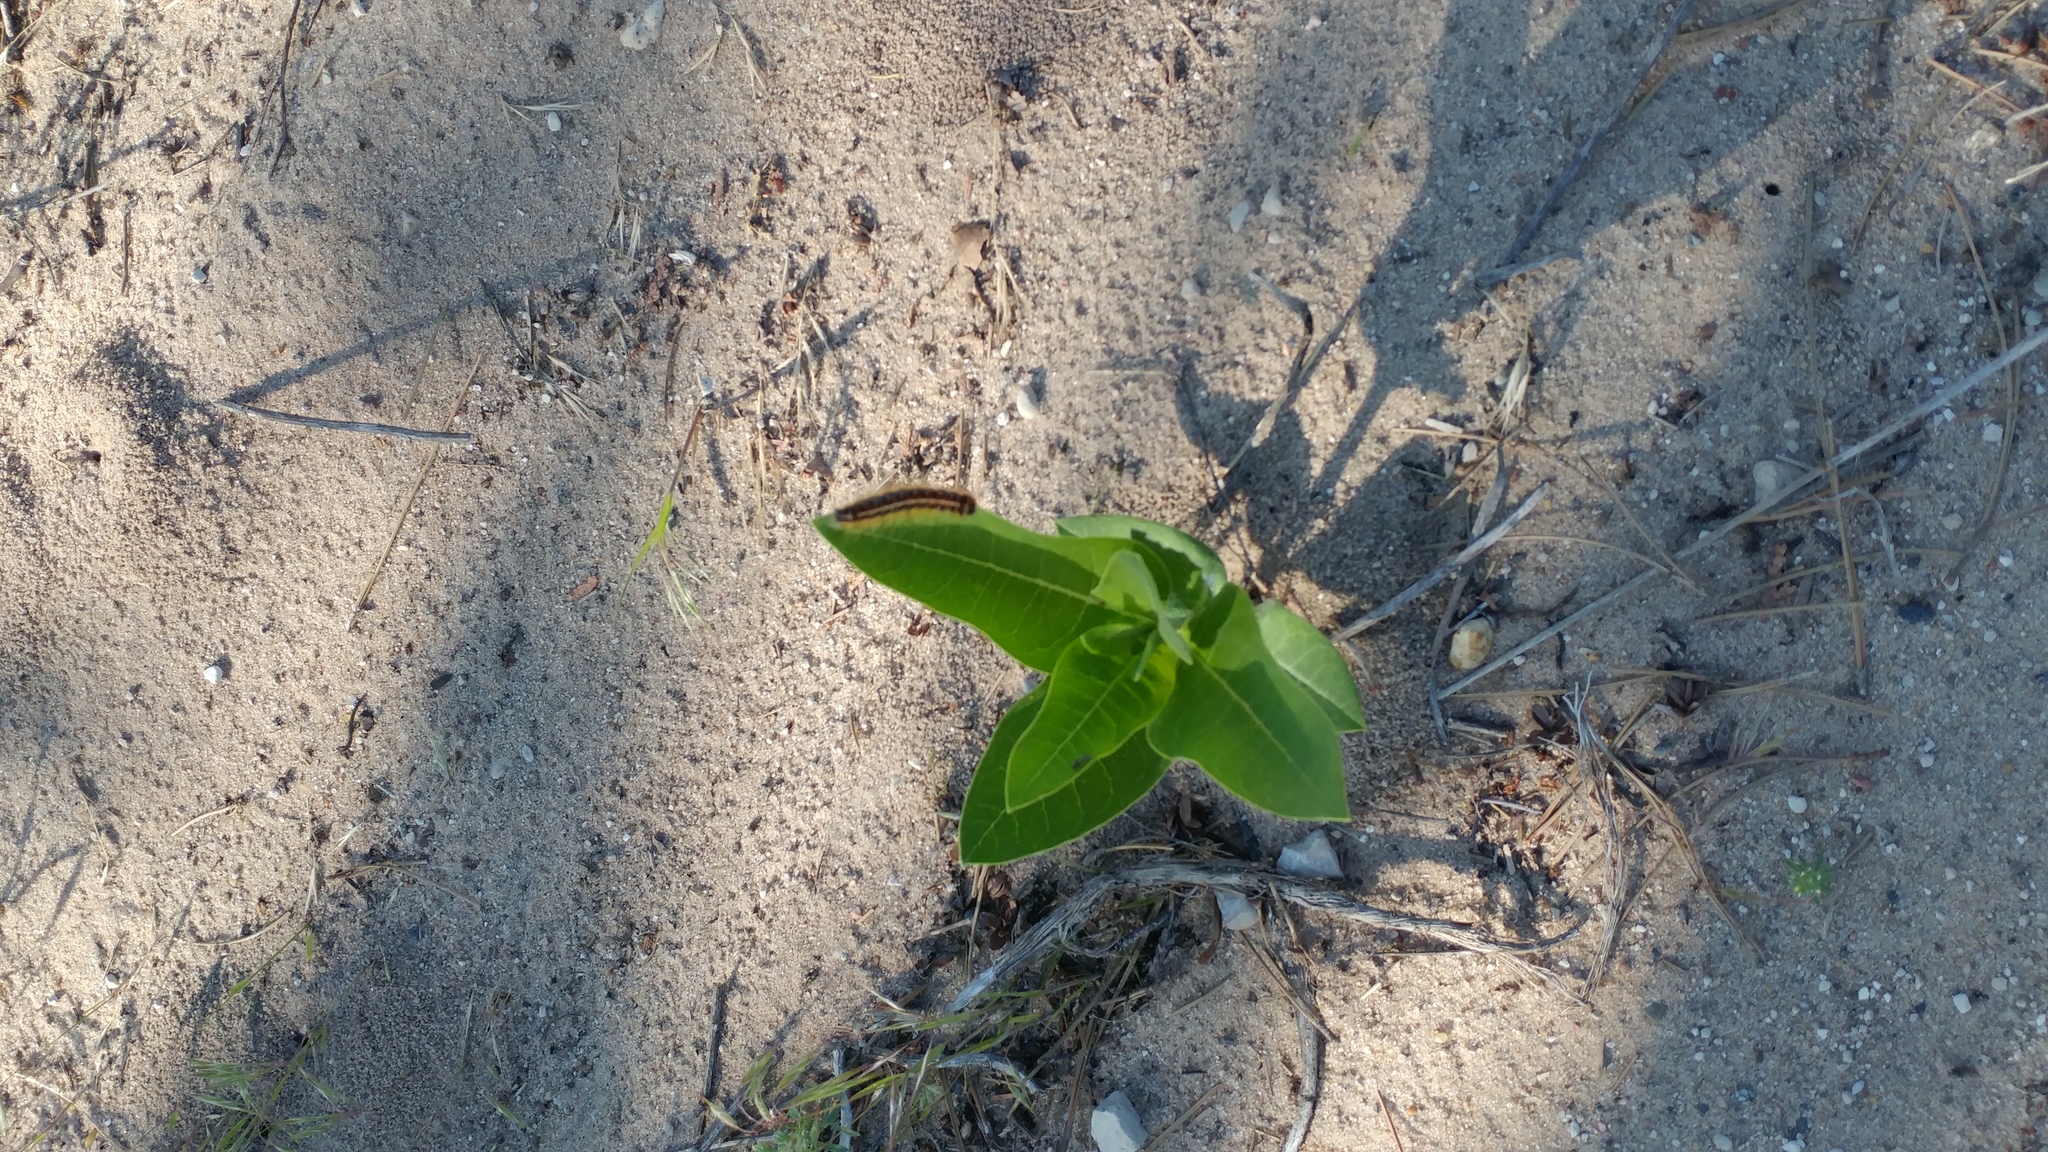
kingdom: Animalia
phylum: Arthropoda
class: Insecta
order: Lepidoptera
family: Lasiocampidae
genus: Malacosoma
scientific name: Malacosoma americana
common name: Eastern tent caterpillar moth
